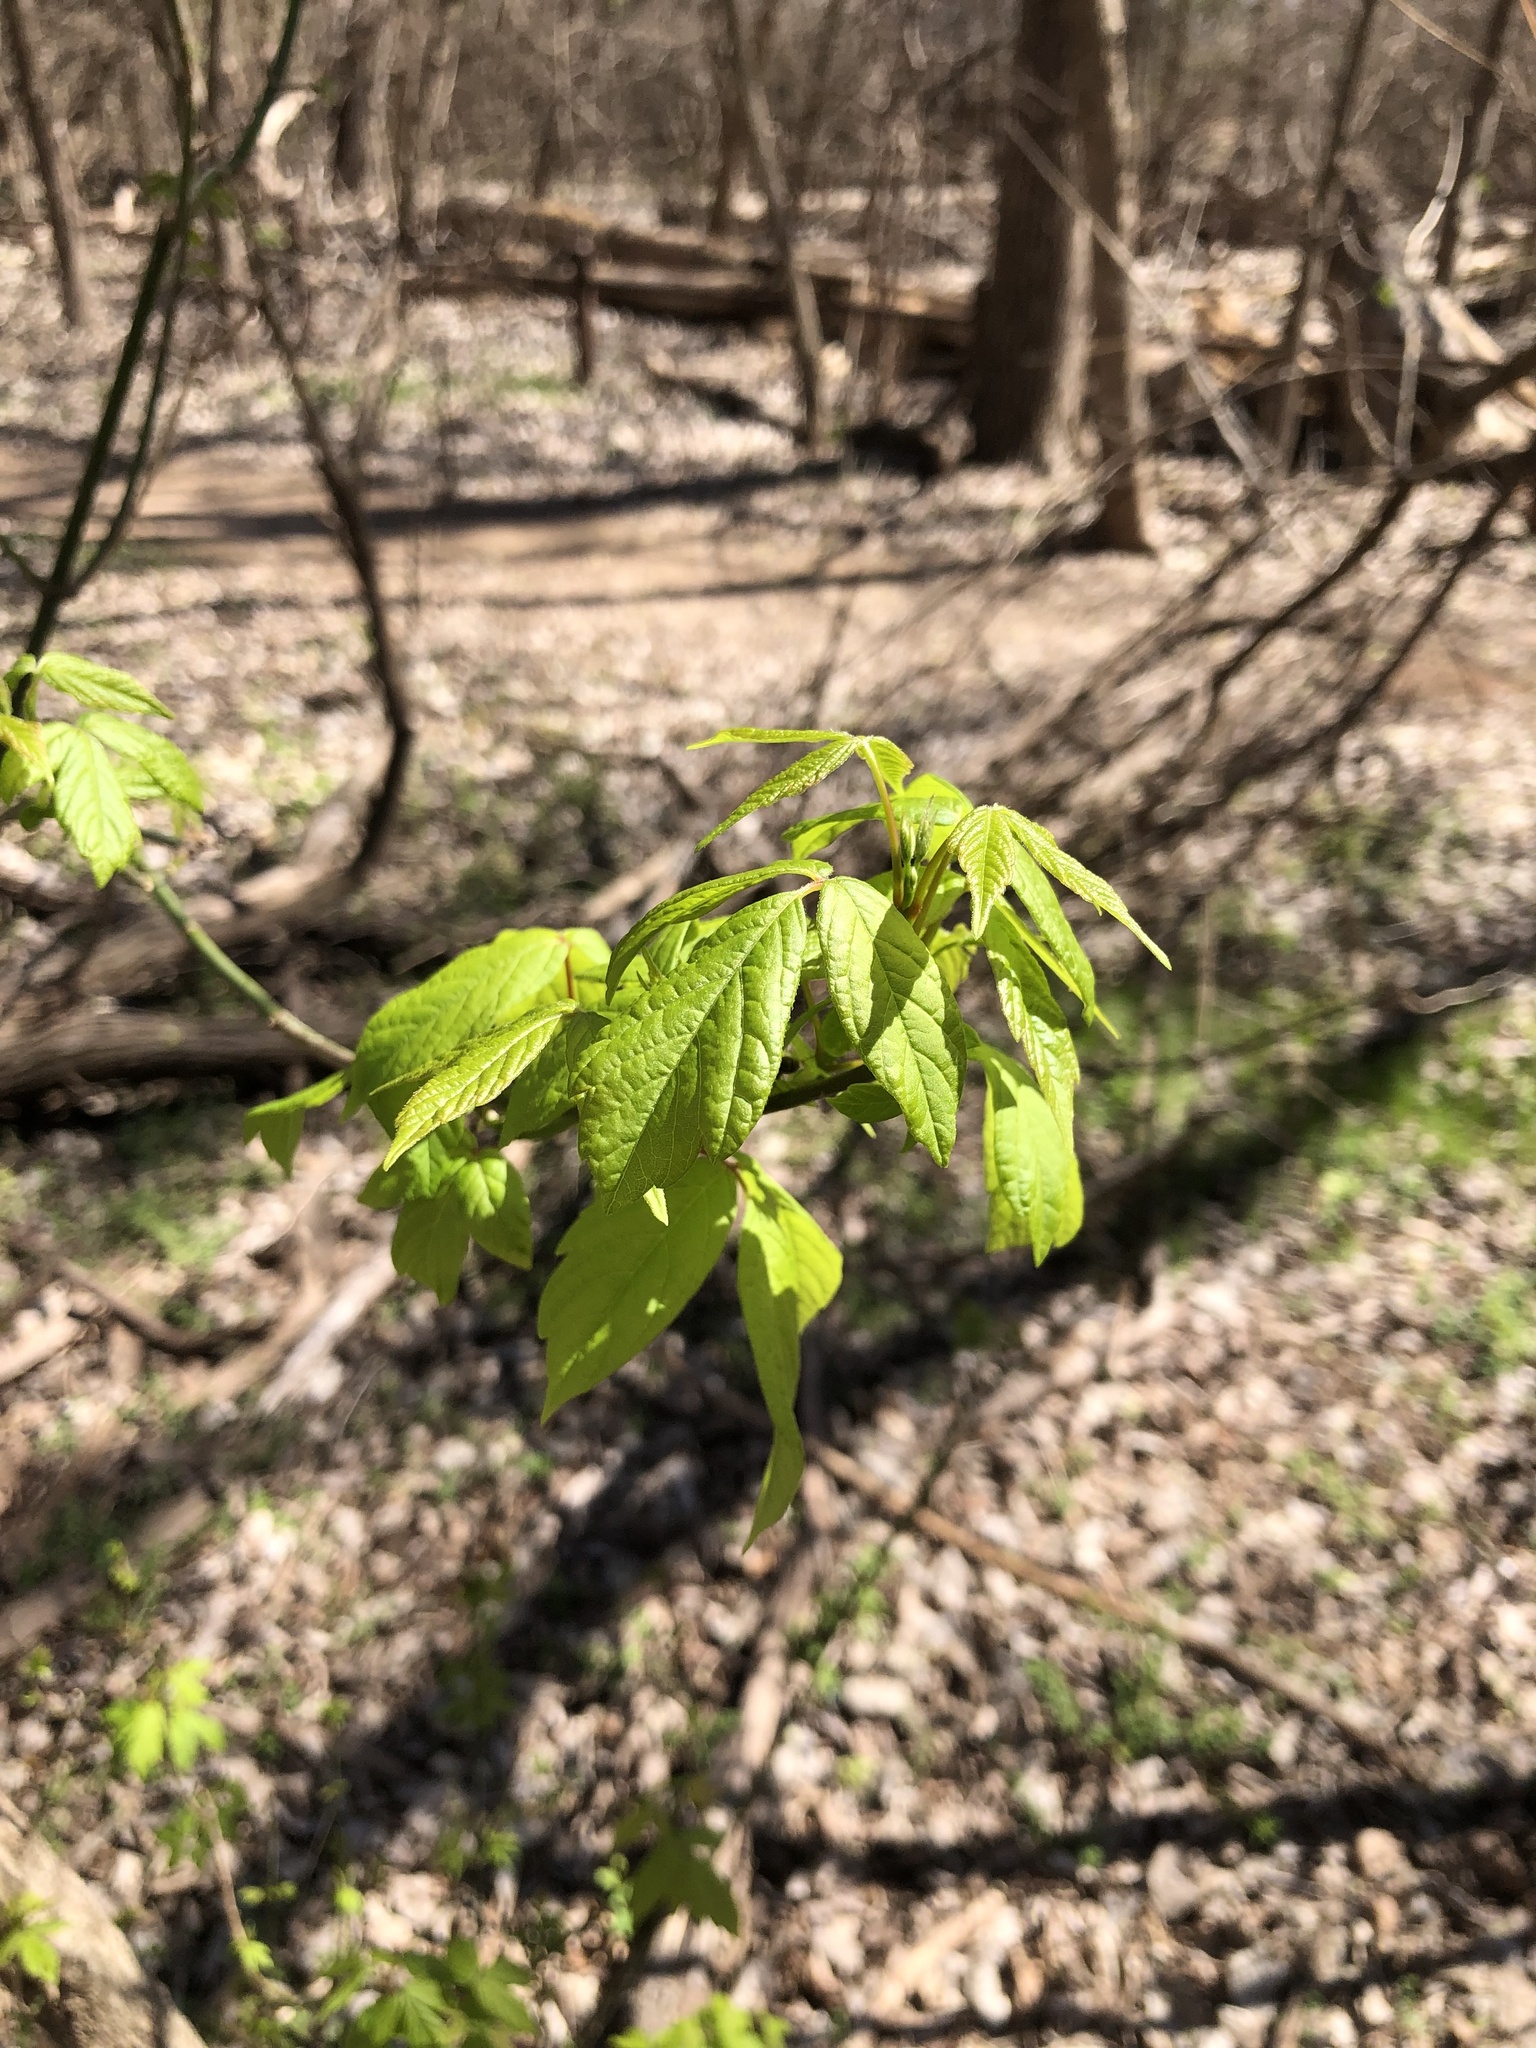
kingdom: Plantae
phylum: Tracheophyta
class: Magnoliopsida
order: Sapindales
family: Sapindaceae
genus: Acer
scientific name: Acer negundo
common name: Ashleaf maple
